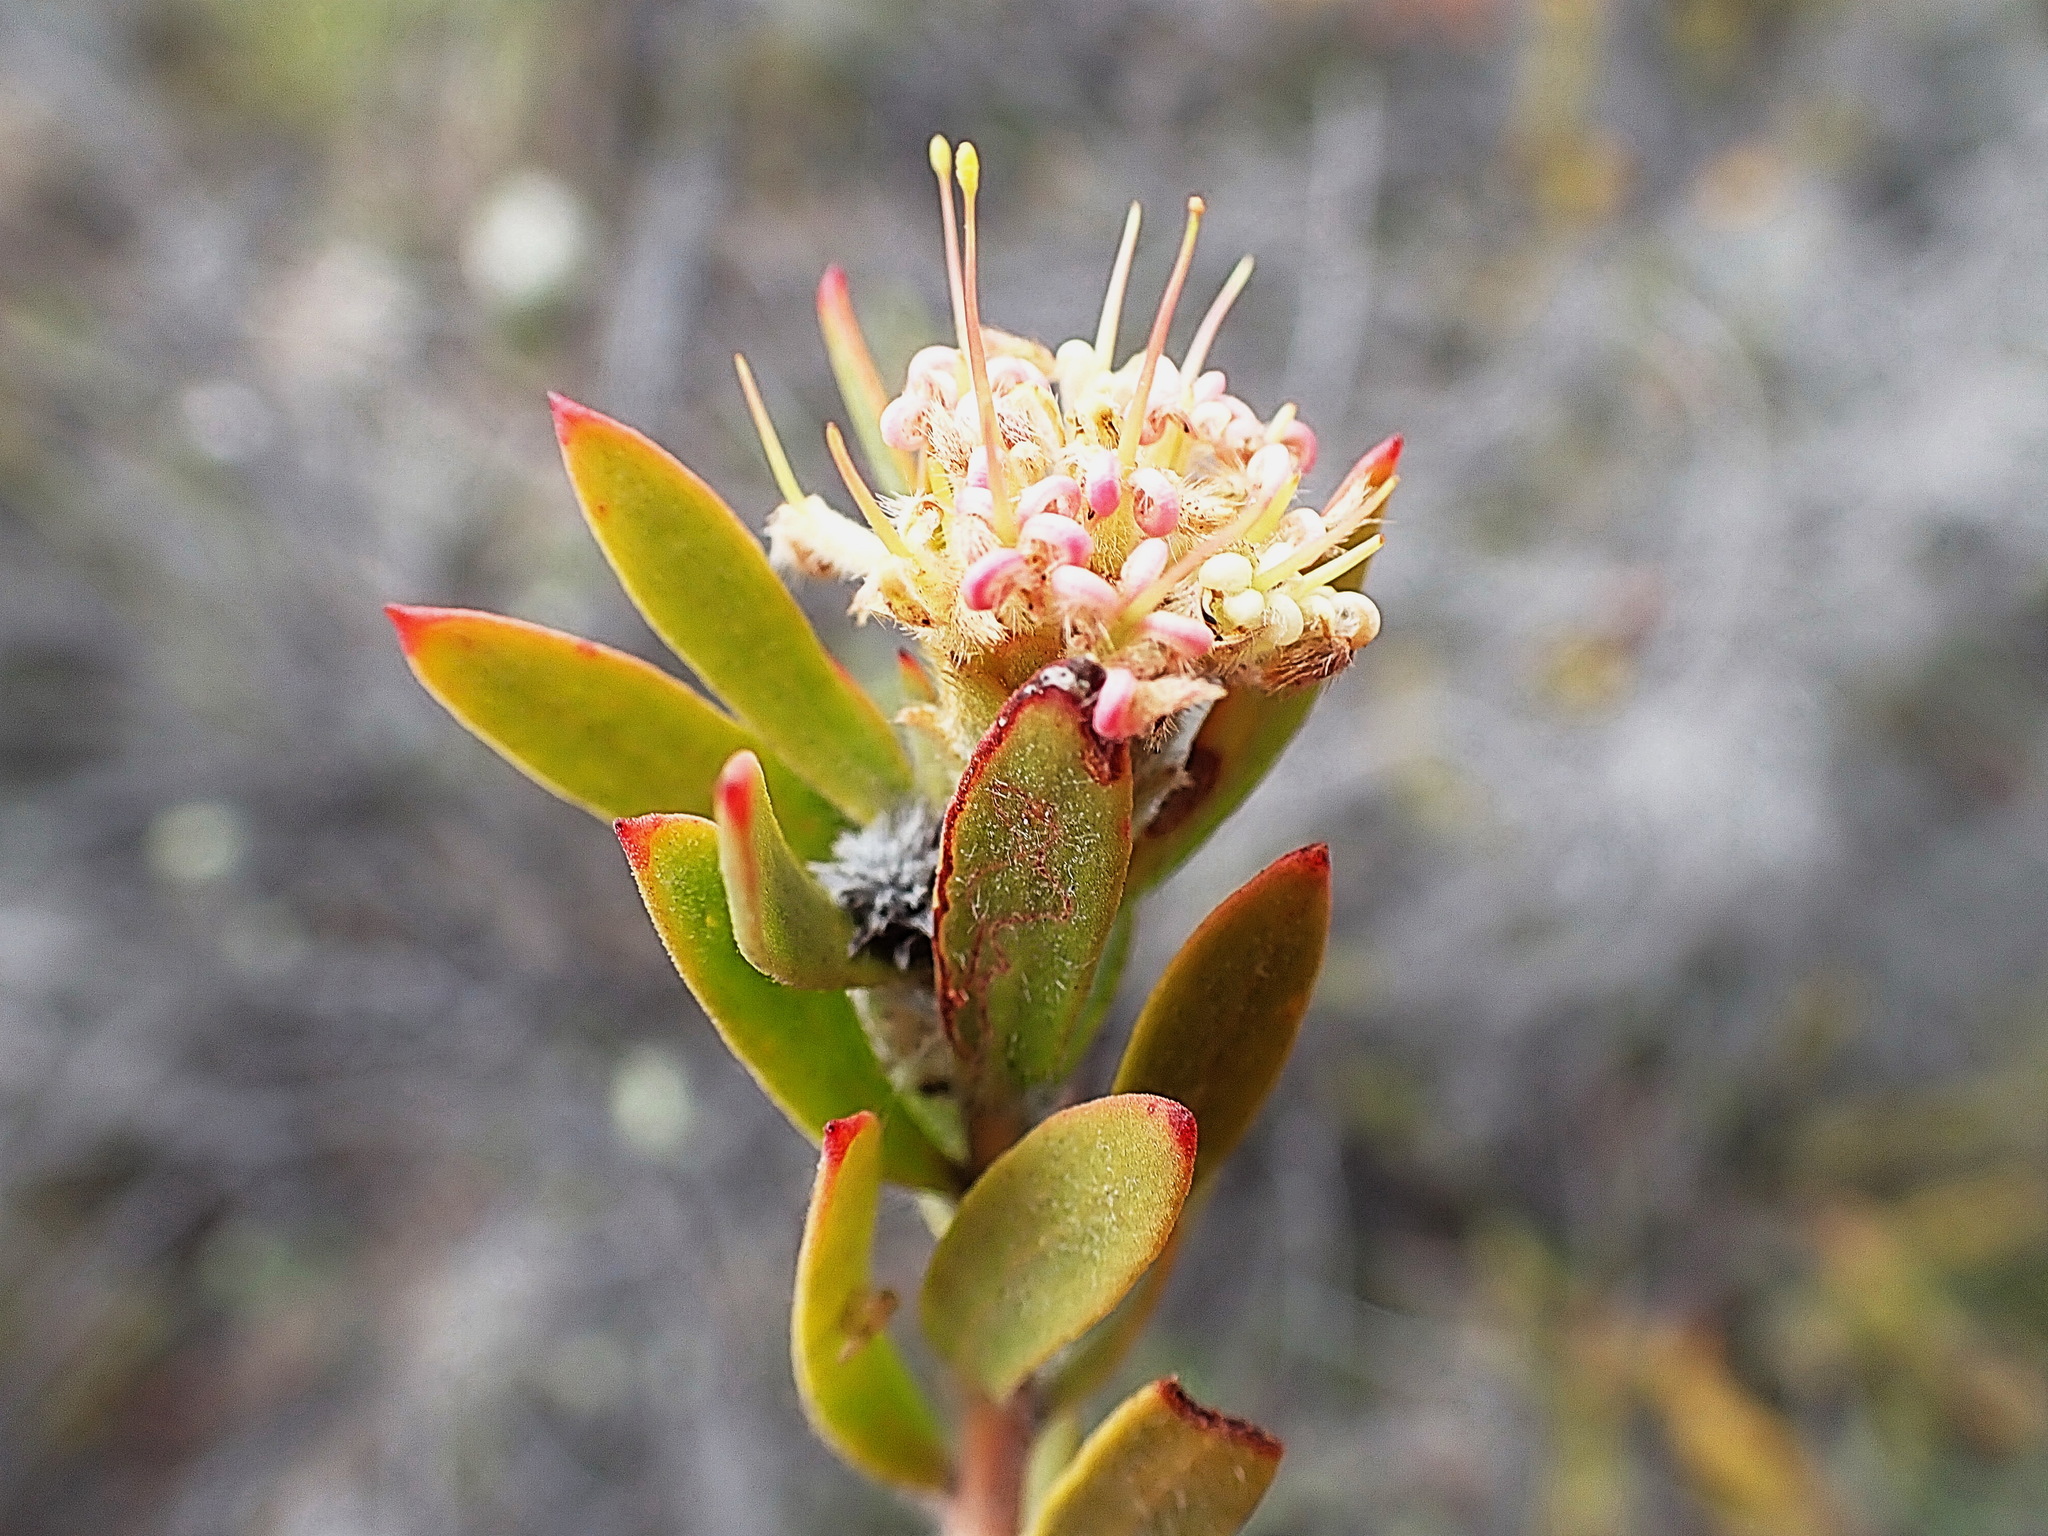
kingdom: Plantae
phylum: Tracheophyta
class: Magnoliopsida
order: Proteales
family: Proteaceae
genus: Leucospermum
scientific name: Leucospermum royenifolium
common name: Eastern pincushion
